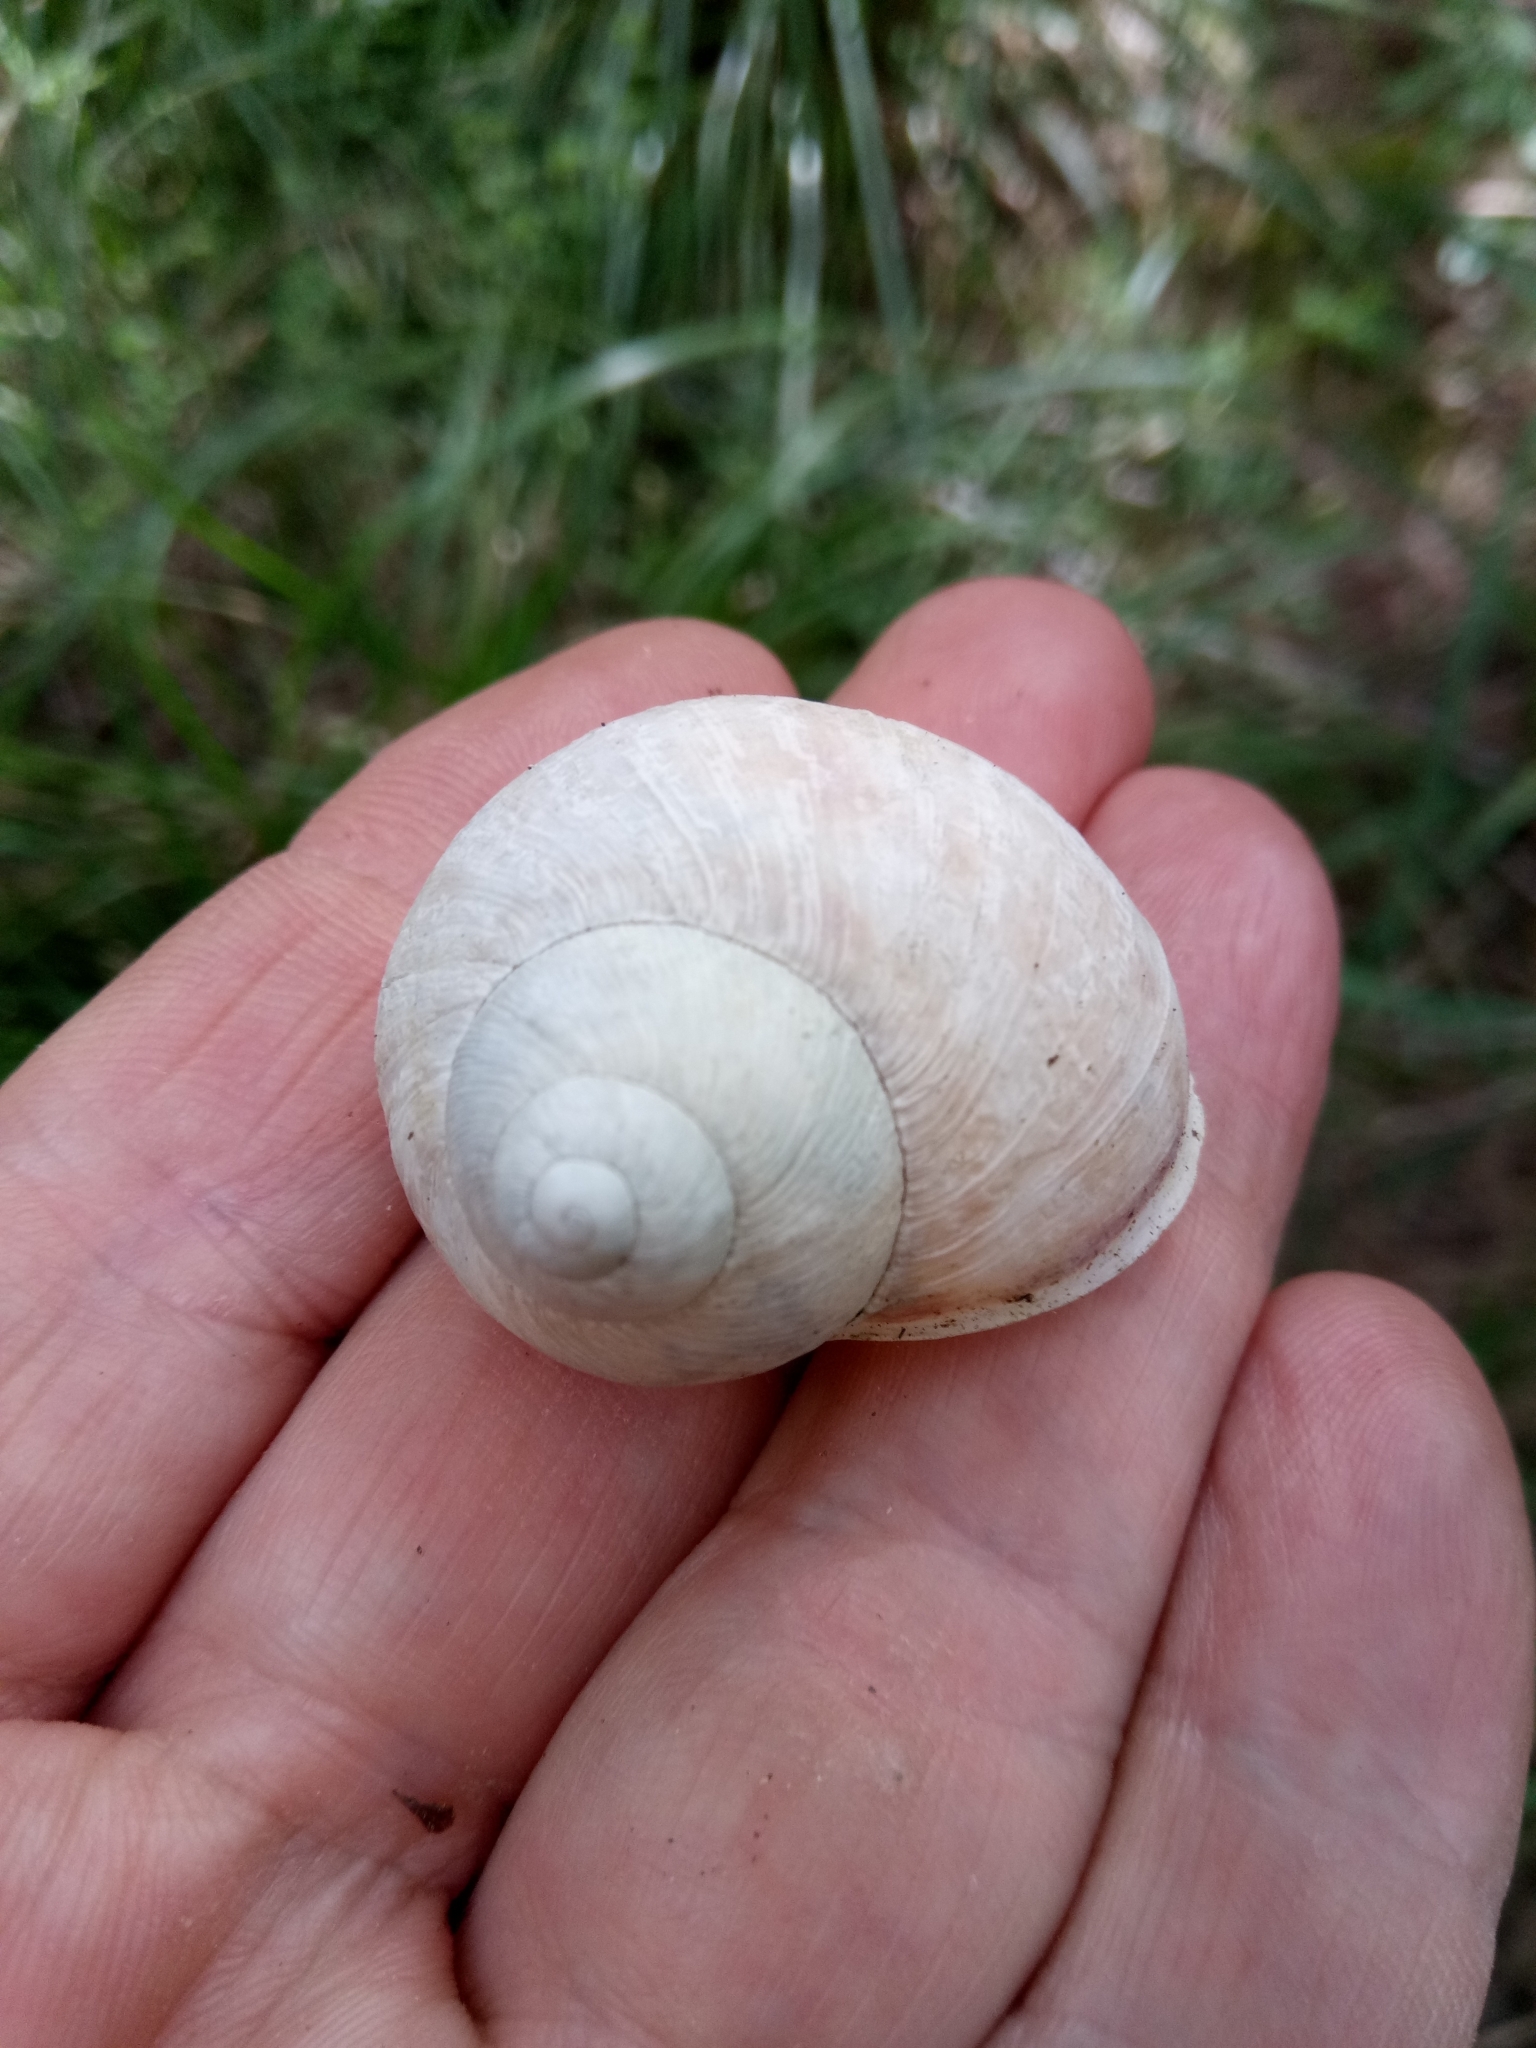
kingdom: Animalia
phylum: Mollusca
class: Gastropoda
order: Stylommatophora
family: Helicidae
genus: Cornu
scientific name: Cornu aspersum
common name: Brown garden snail
